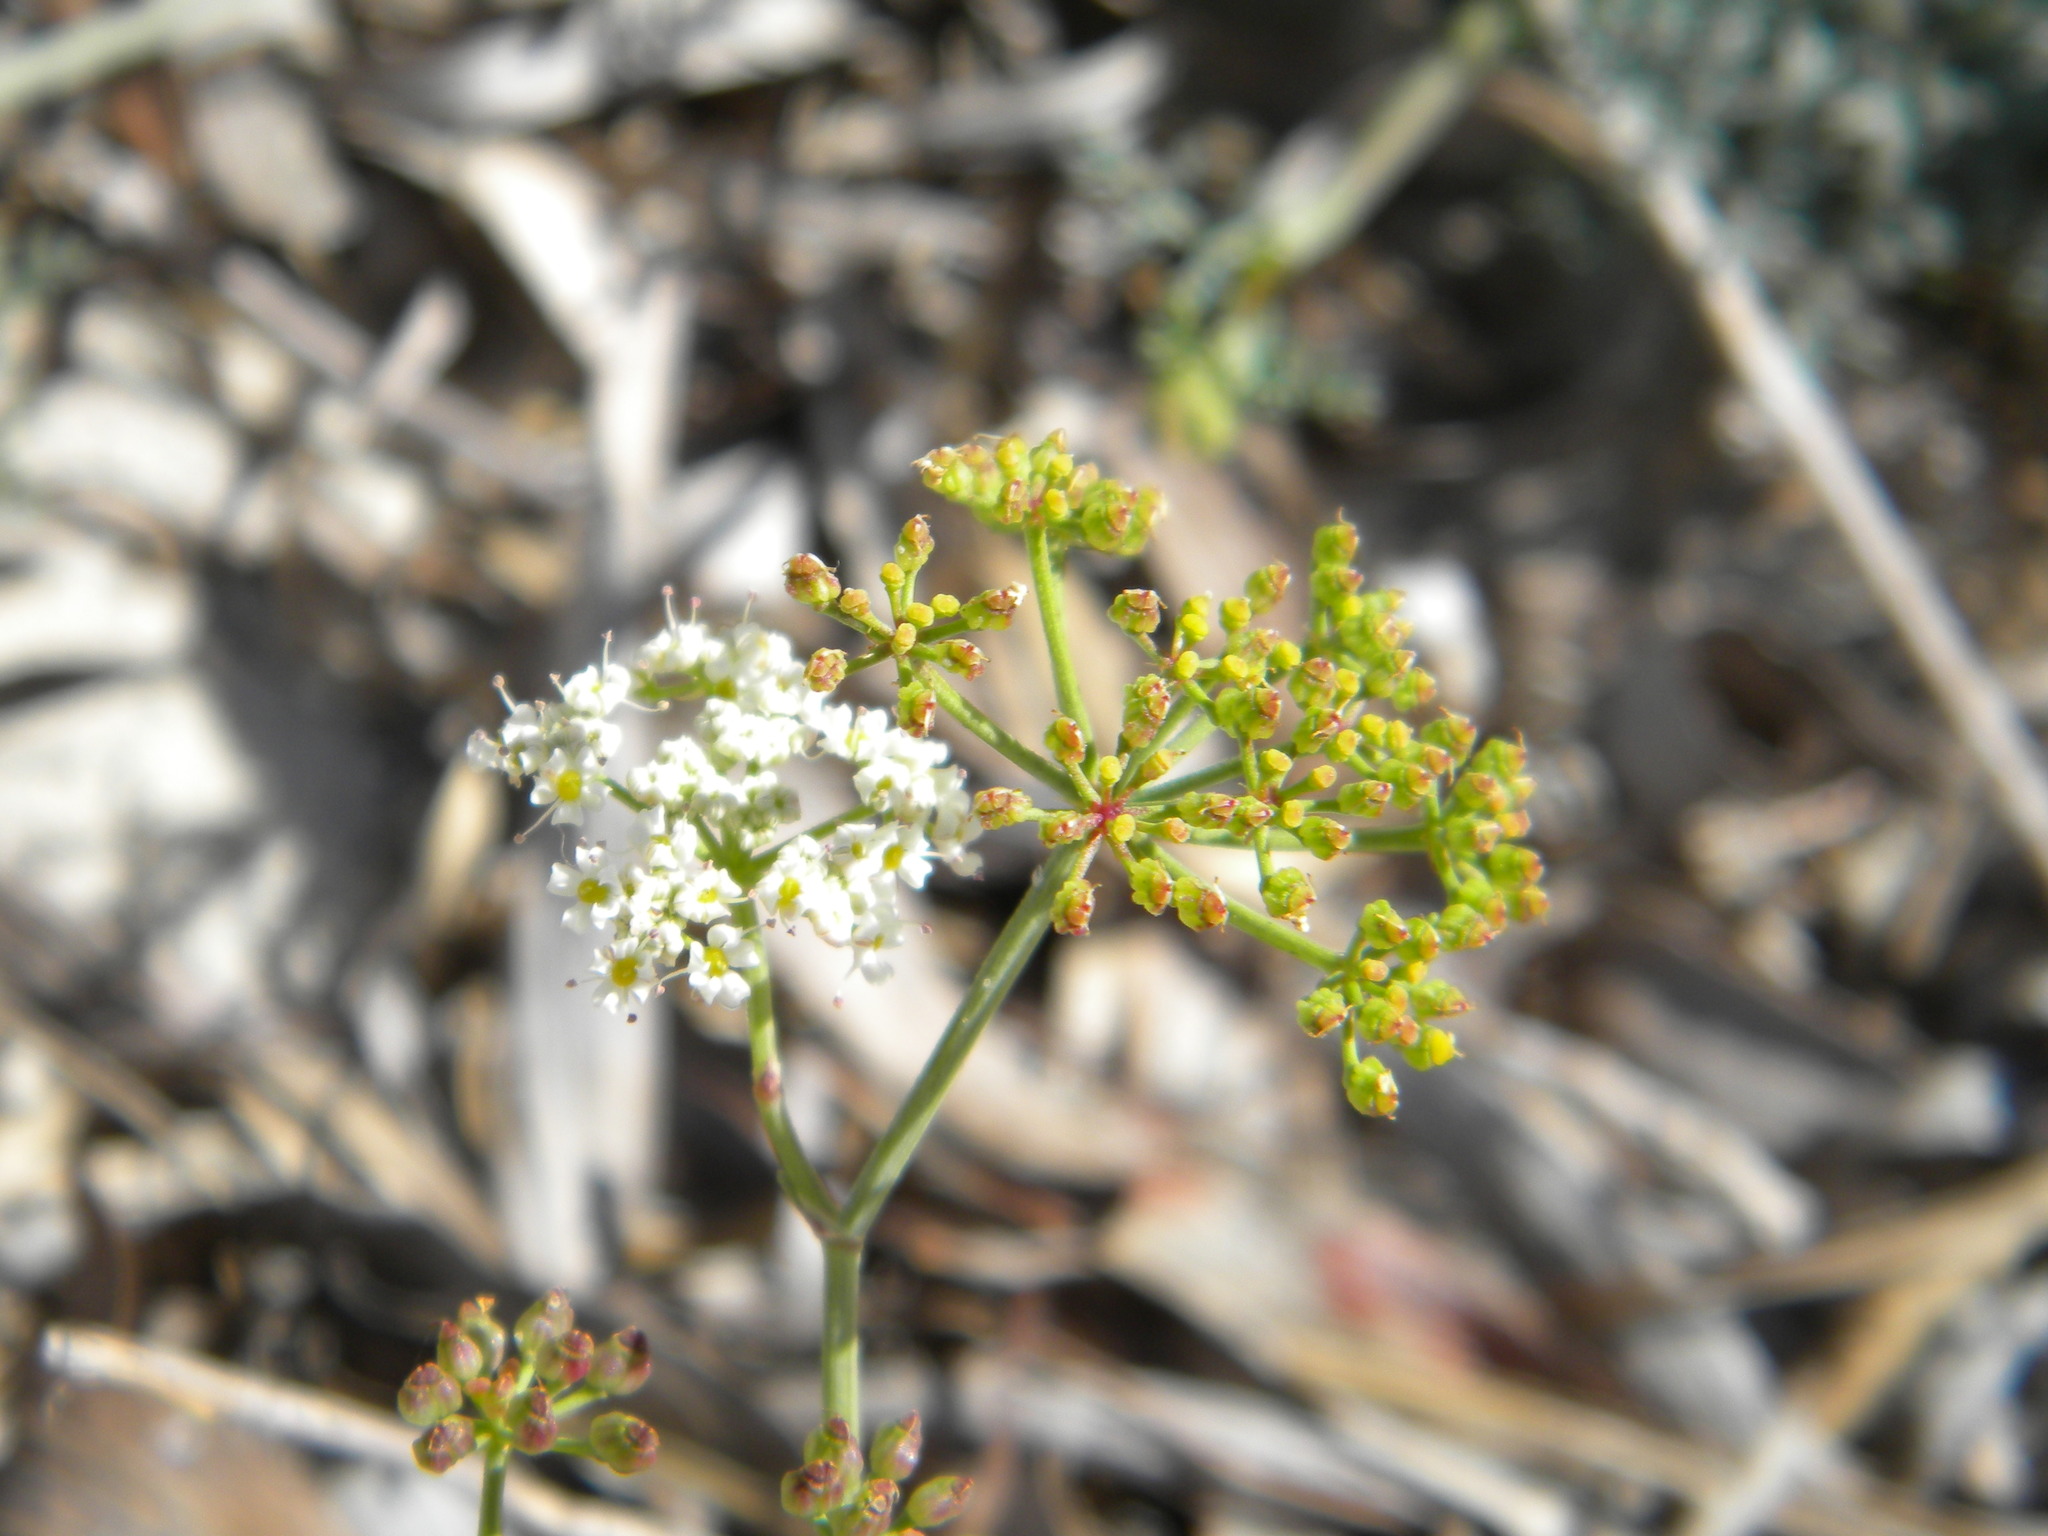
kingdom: Plantae
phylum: Tracheophyta
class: Magnoliopsida
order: Apiales
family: Apiaceae
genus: Dasispermum
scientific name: Dasispermum suffruticosum
